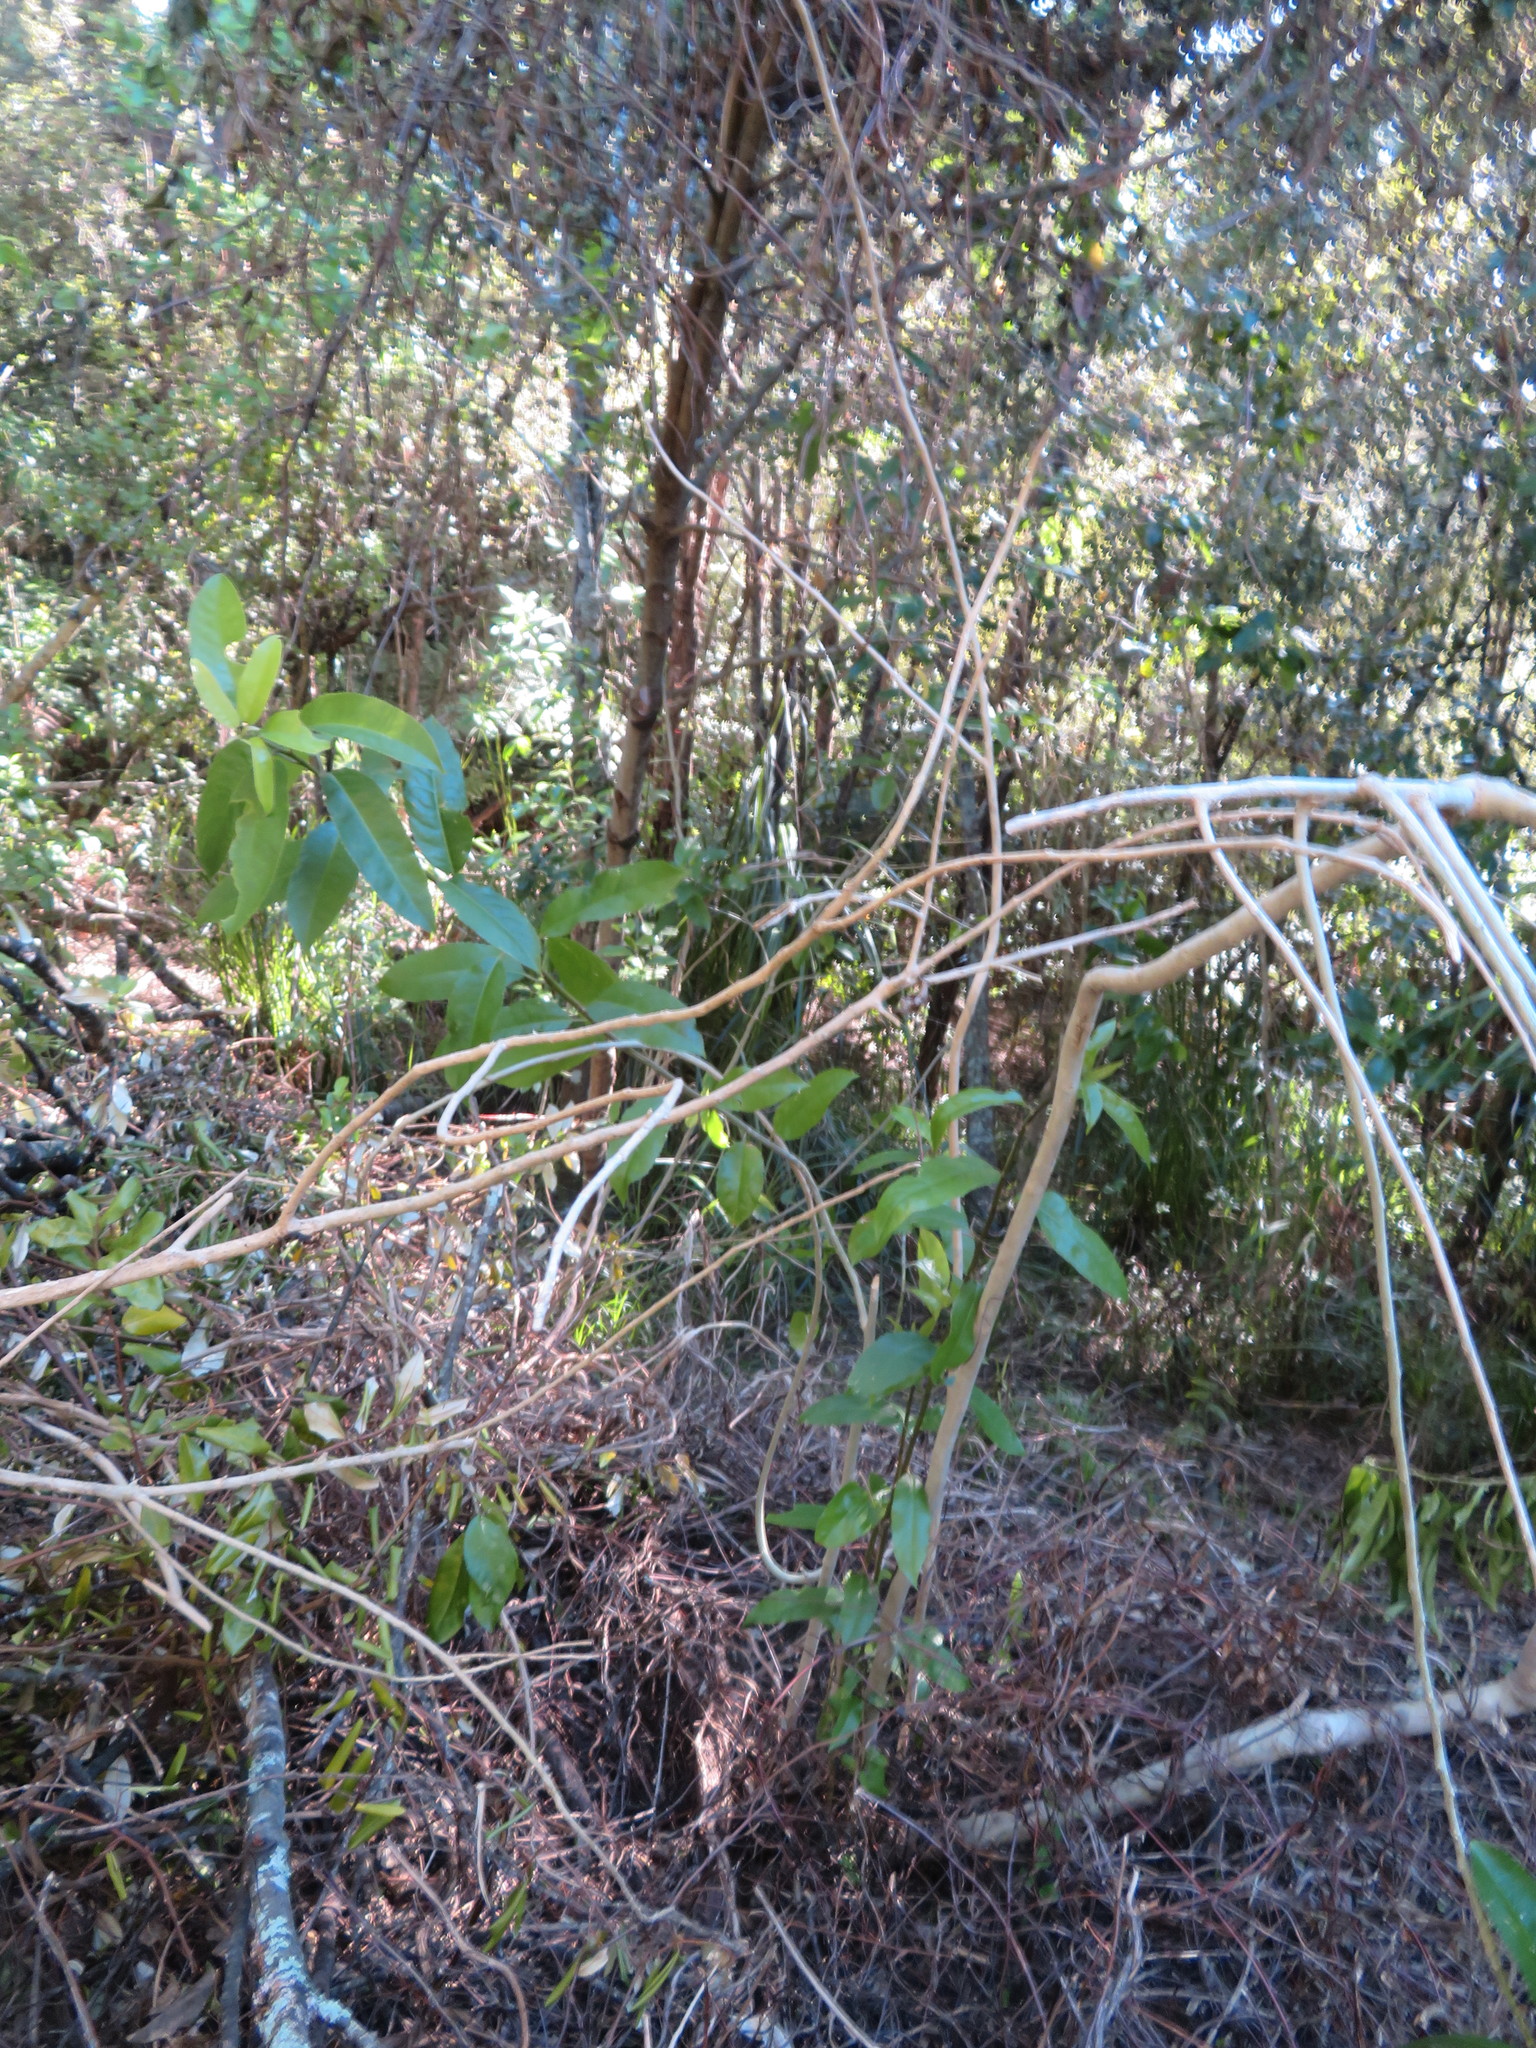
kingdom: Plantae
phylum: Tracheophyta
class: Magnoliopsida
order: Malpighiales
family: Violaceae
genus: Melicytus
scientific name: Melicytus ramiflorus
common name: Mahoe
